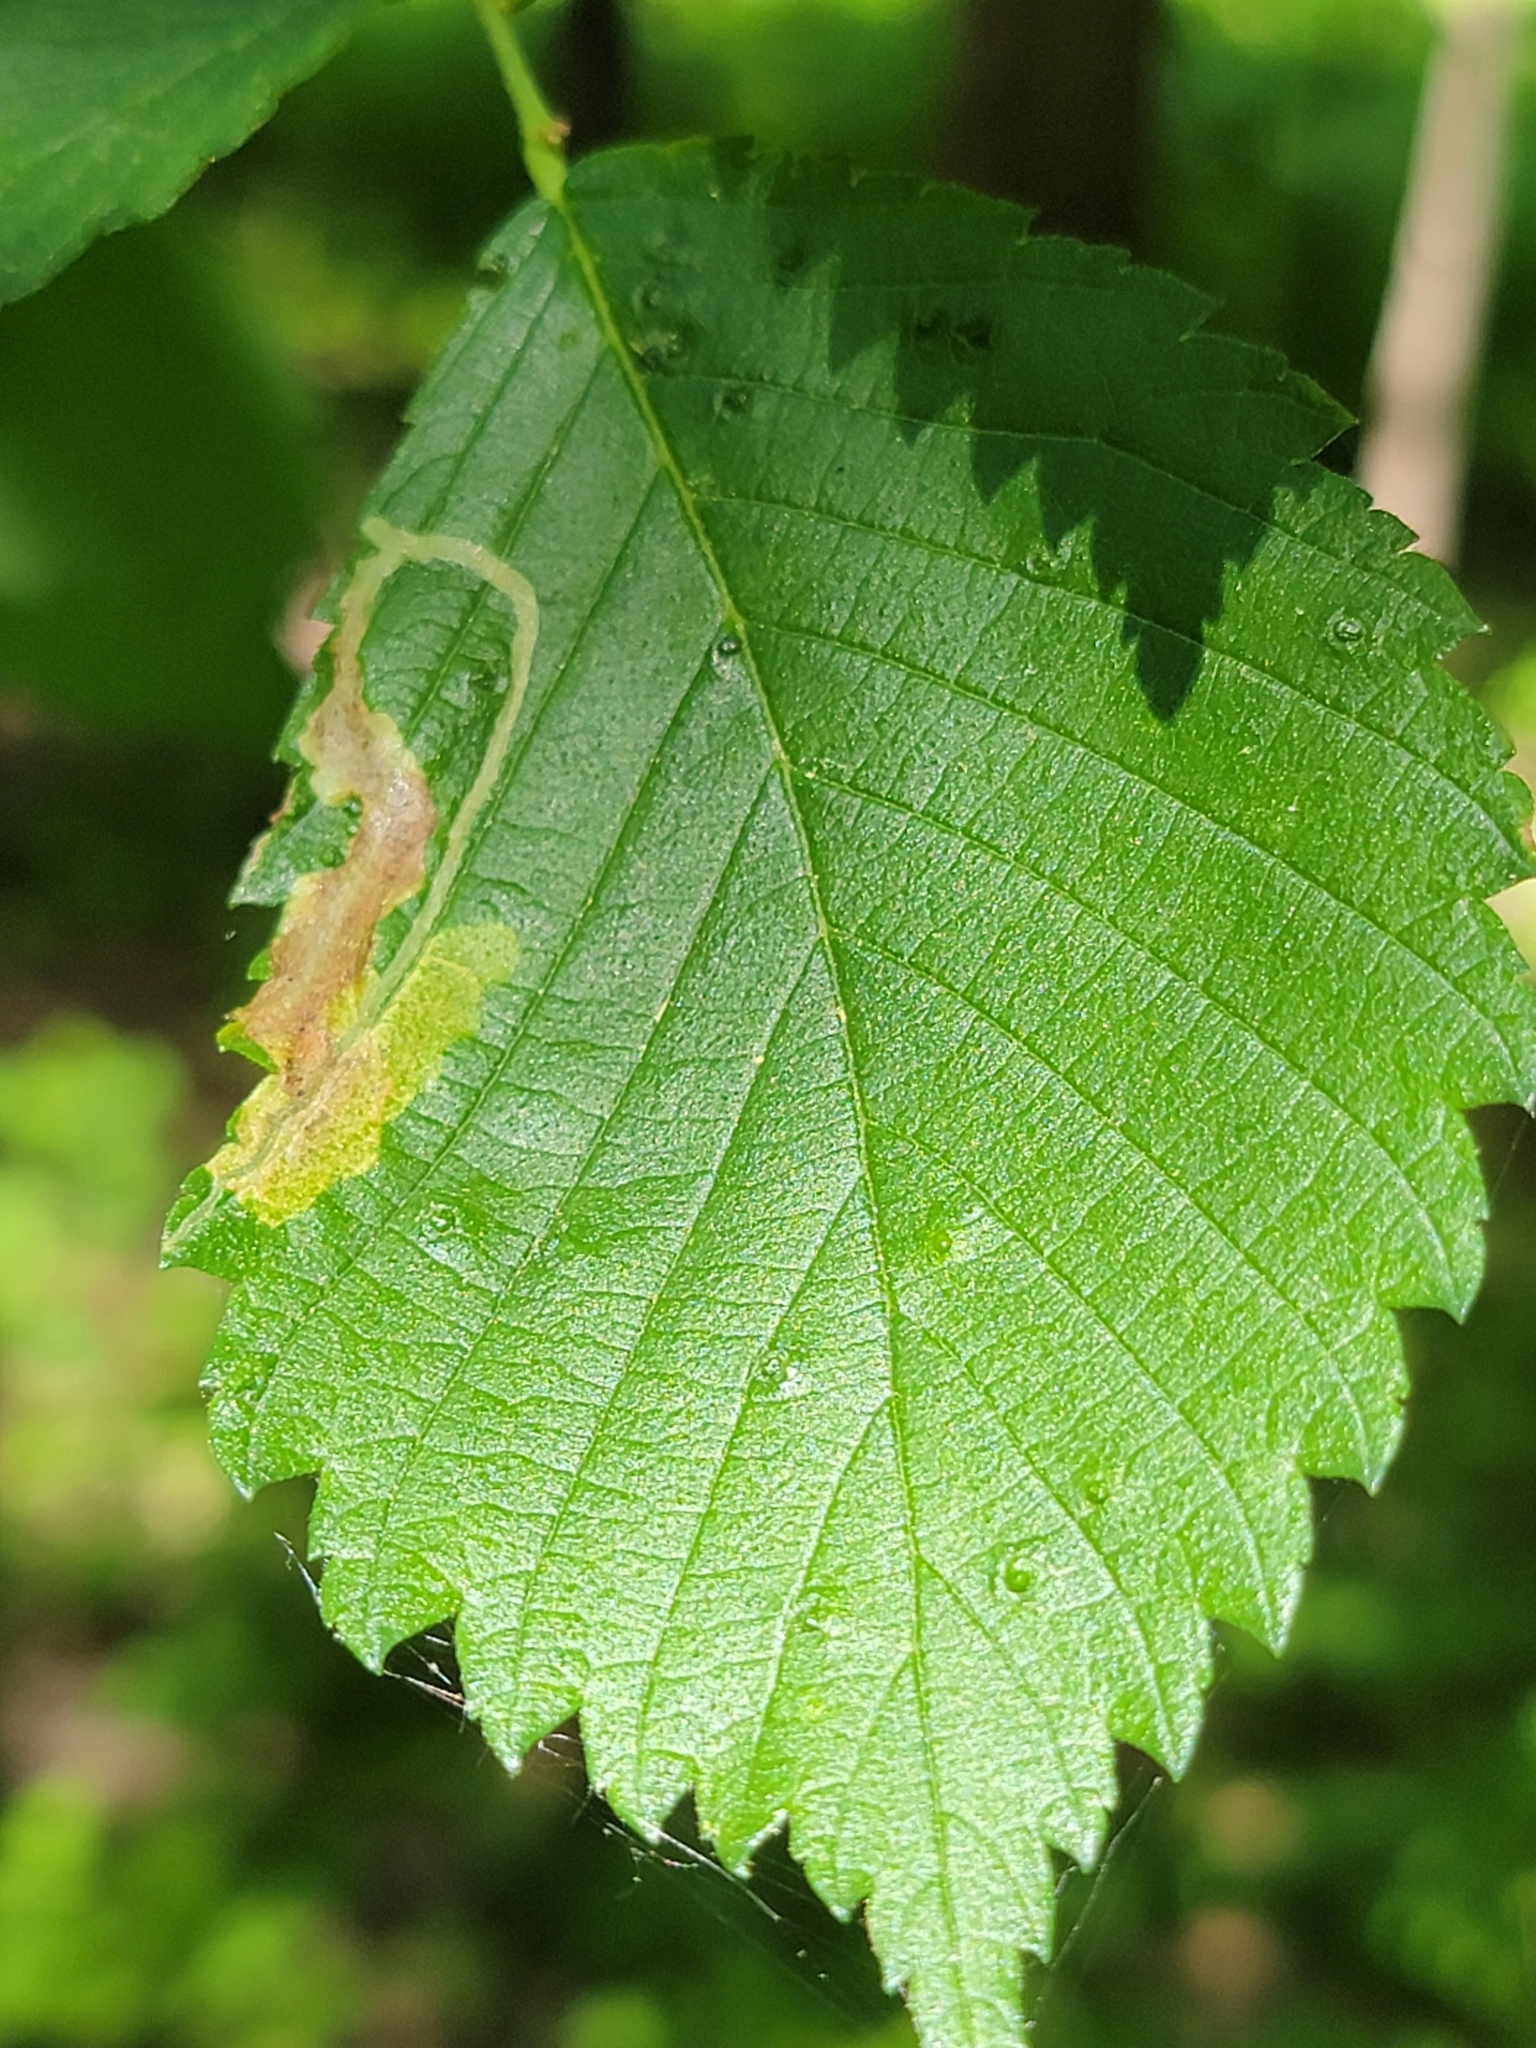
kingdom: Animalia
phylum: Arthropoda
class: Insecta
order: Diptera
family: Agromyzidae
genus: Agromyza
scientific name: Agromyza aristata
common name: Elm agromyzid leafminer
